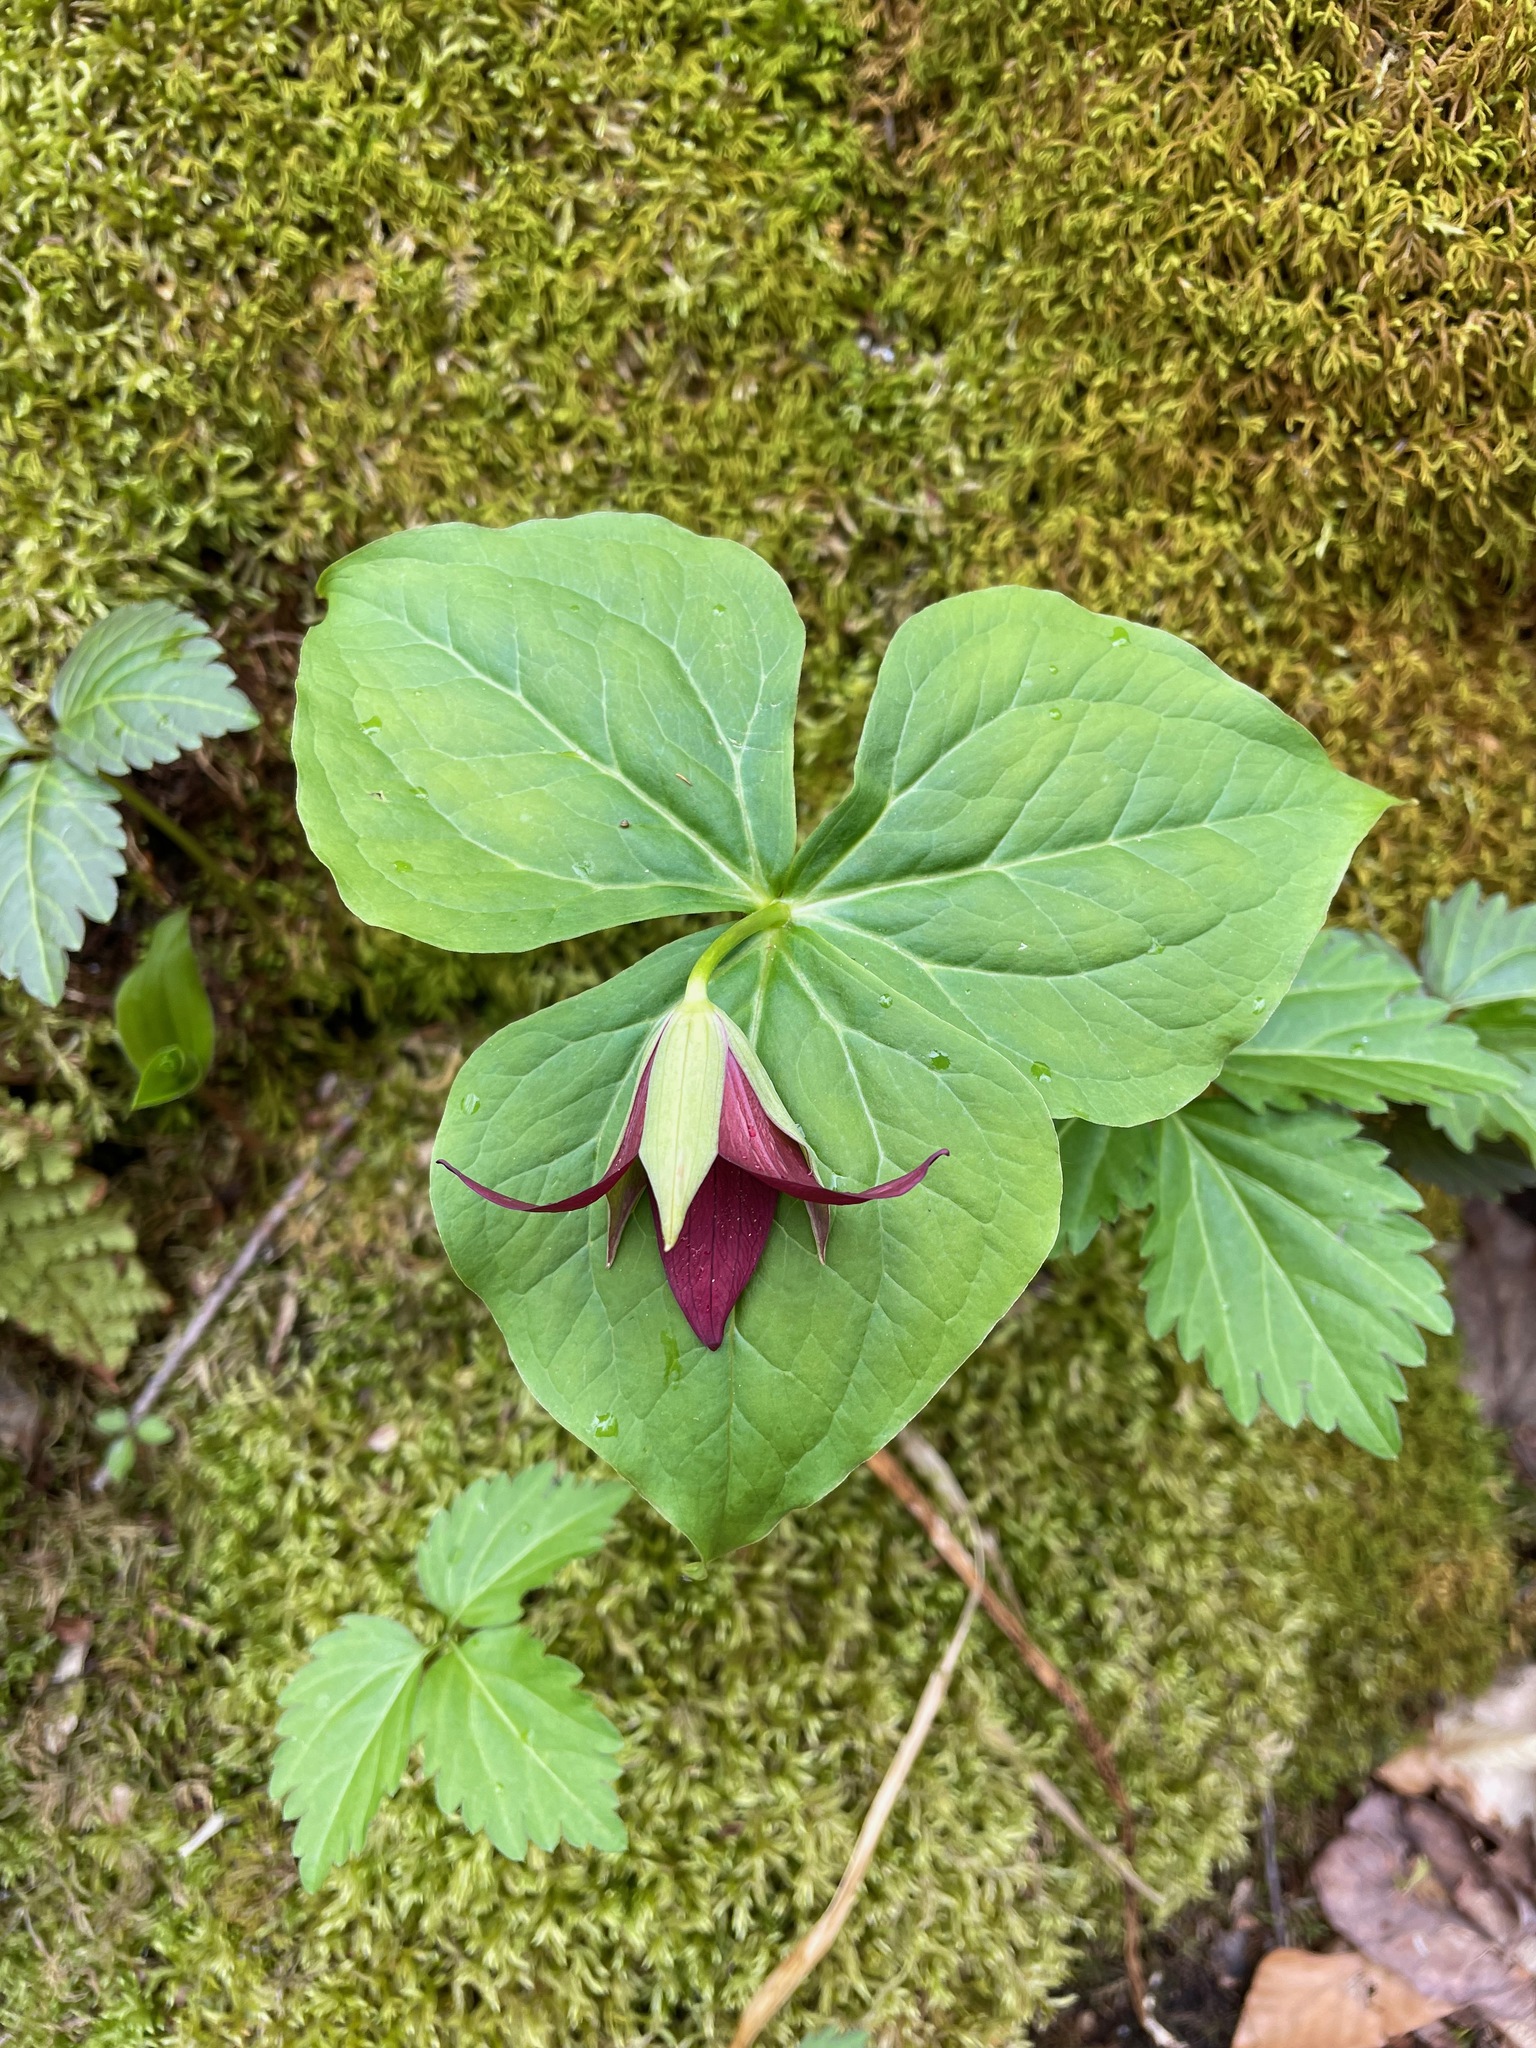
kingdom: Plantae
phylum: Tracheophyta
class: Liliopsida
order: Liliales
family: Melanthiaceae
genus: Trillium
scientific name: Trillium erectum
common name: Purple trillium
